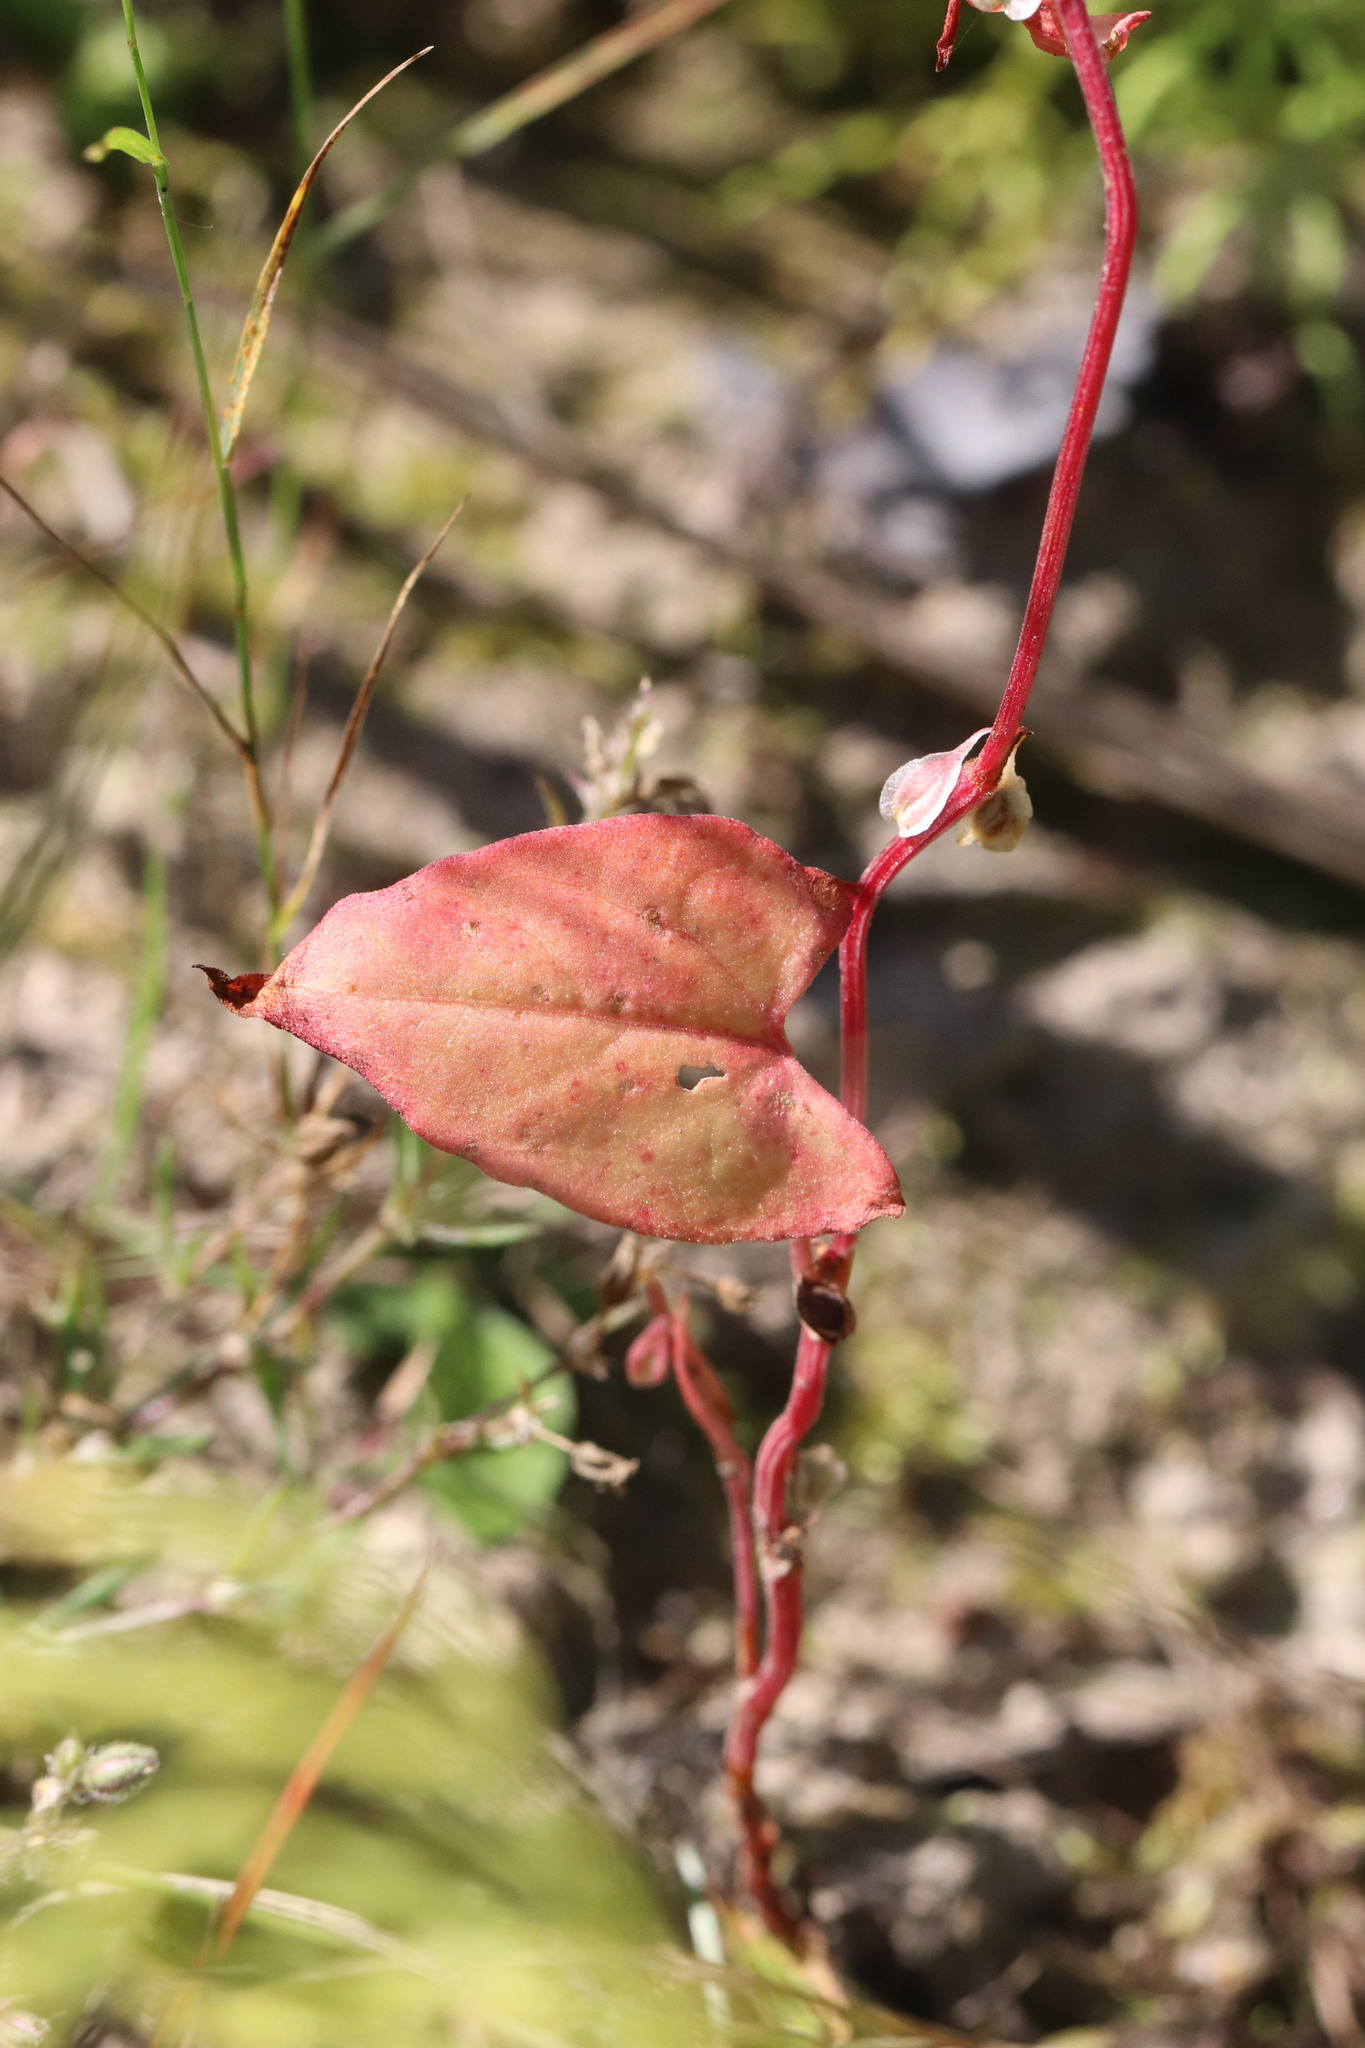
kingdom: Plantae
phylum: Tracheophyta
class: Magnoliopsida
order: Caryophyllales
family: Polygonaceae
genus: Fallopia
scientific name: Fallopia dumetorum
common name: Copse-bindweed
